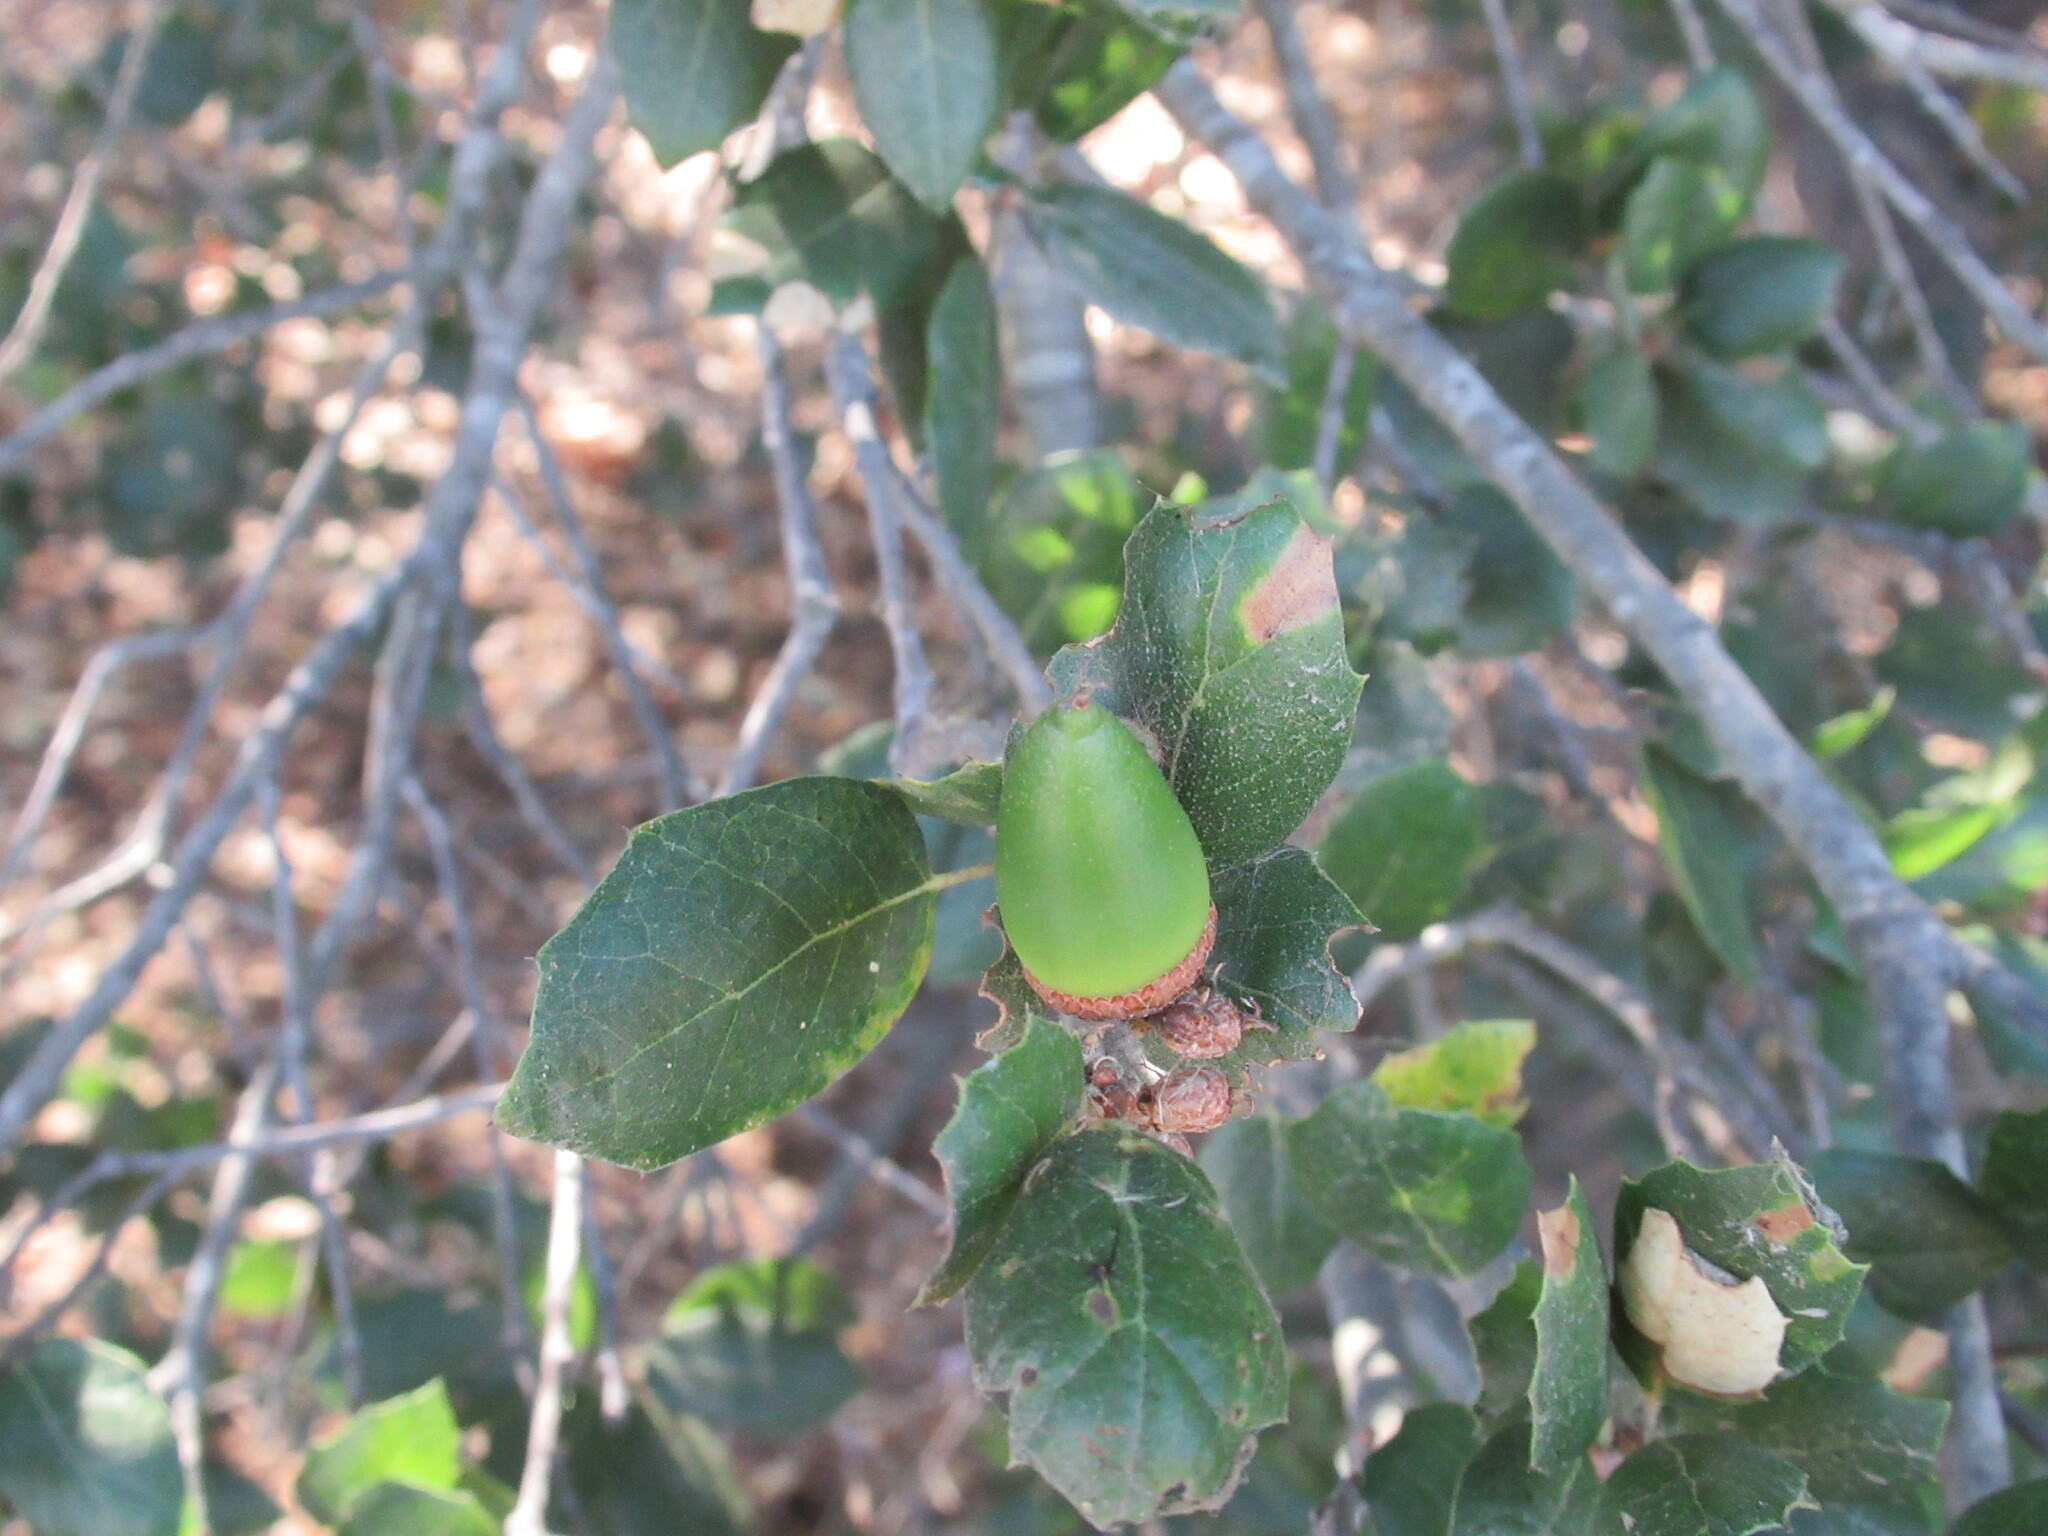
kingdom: Plantae
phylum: Tracheophyta
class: Magnoliopsida
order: Fagales
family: Fagaceae
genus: Quercus
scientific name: Quercus agrifolia
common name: California live oak
